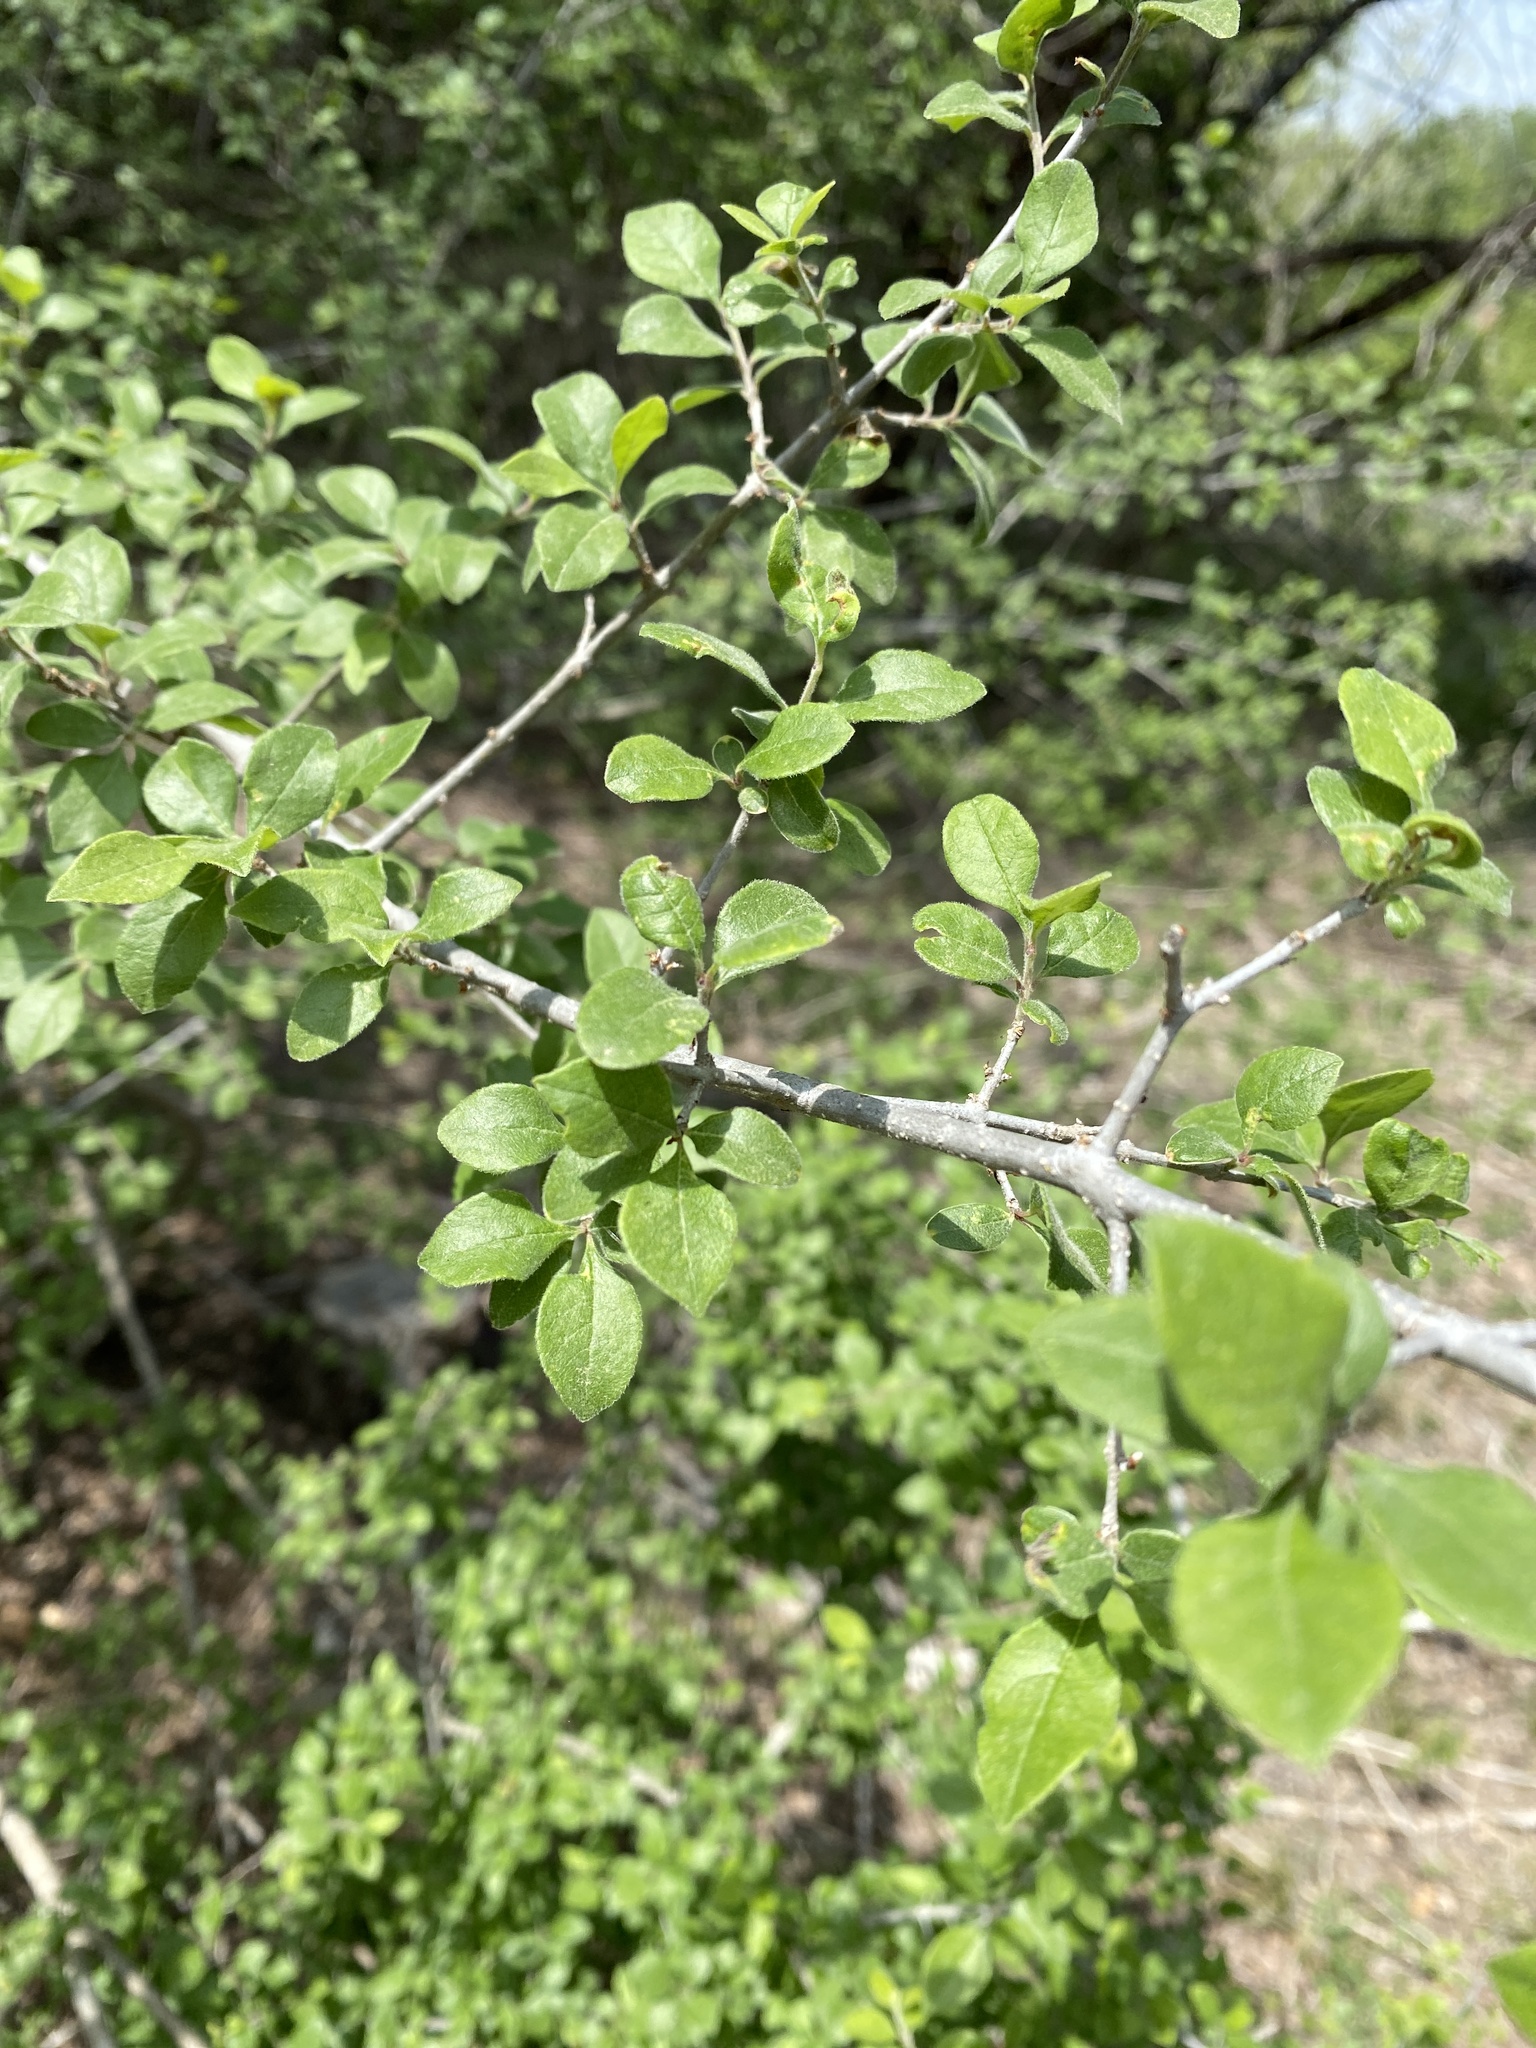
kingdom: Plantae
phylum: Tracheophyta
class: Magnoliopsida
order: Lamiales
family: Oleaceae
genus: Forestiera
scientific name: Forestiera pubescens
